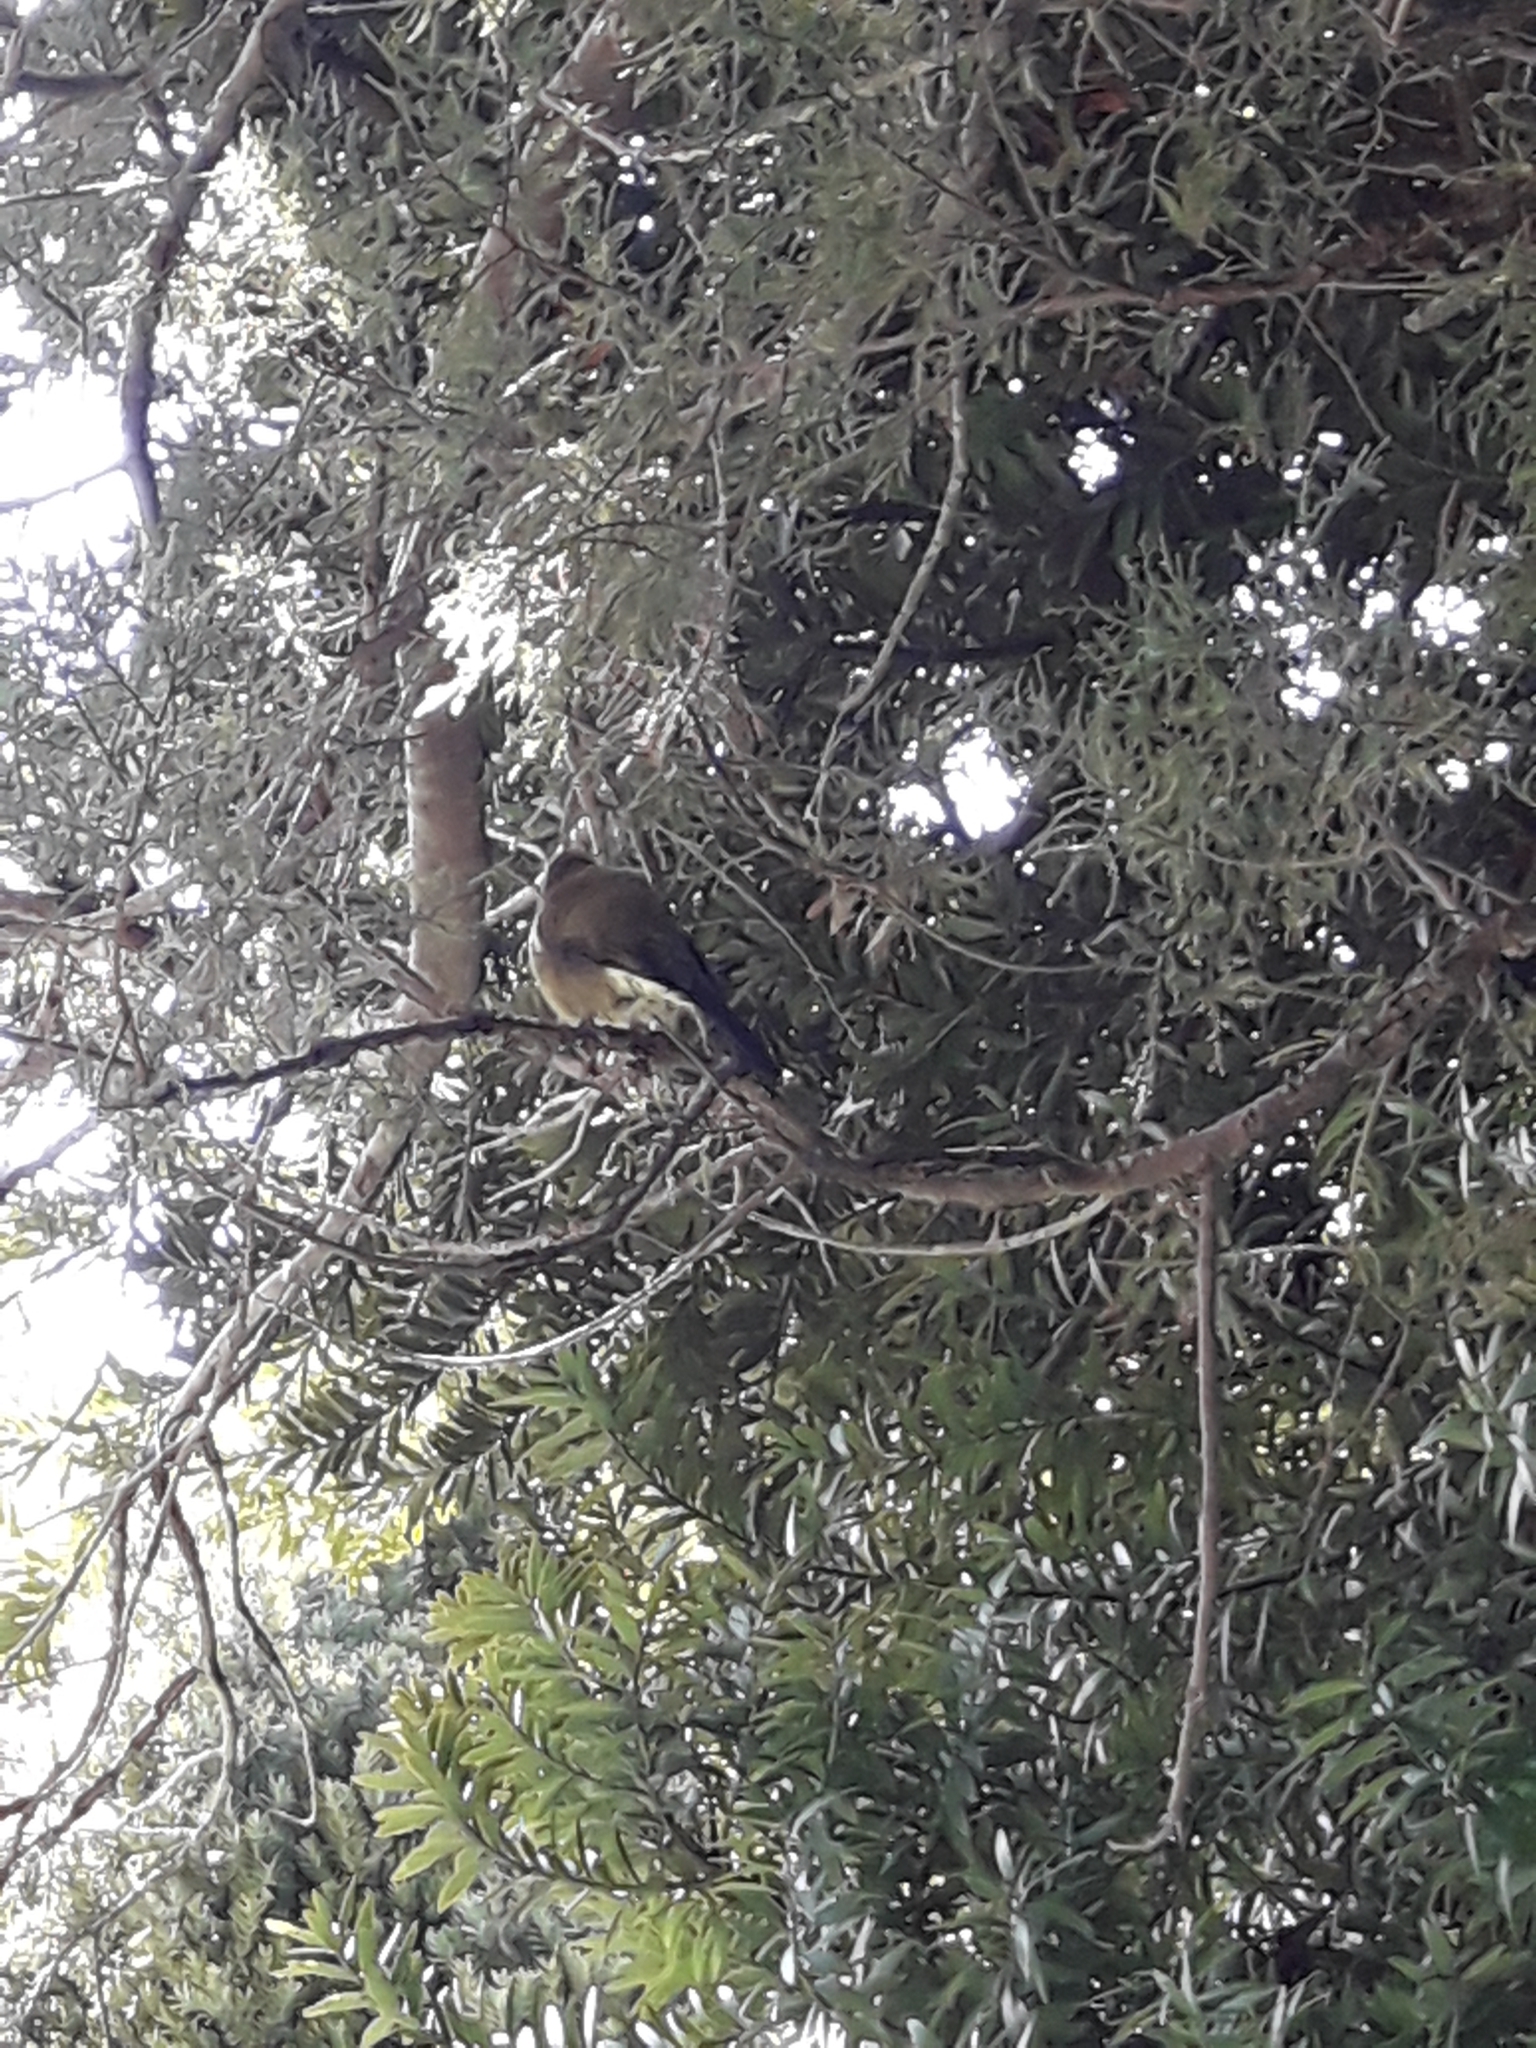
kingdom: Animalia
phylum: Chordata
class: Aves
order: Passeriformes
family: Meliphagidae
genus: Anthornis
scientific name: Anthornis melanura
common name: New zealand bellbird
